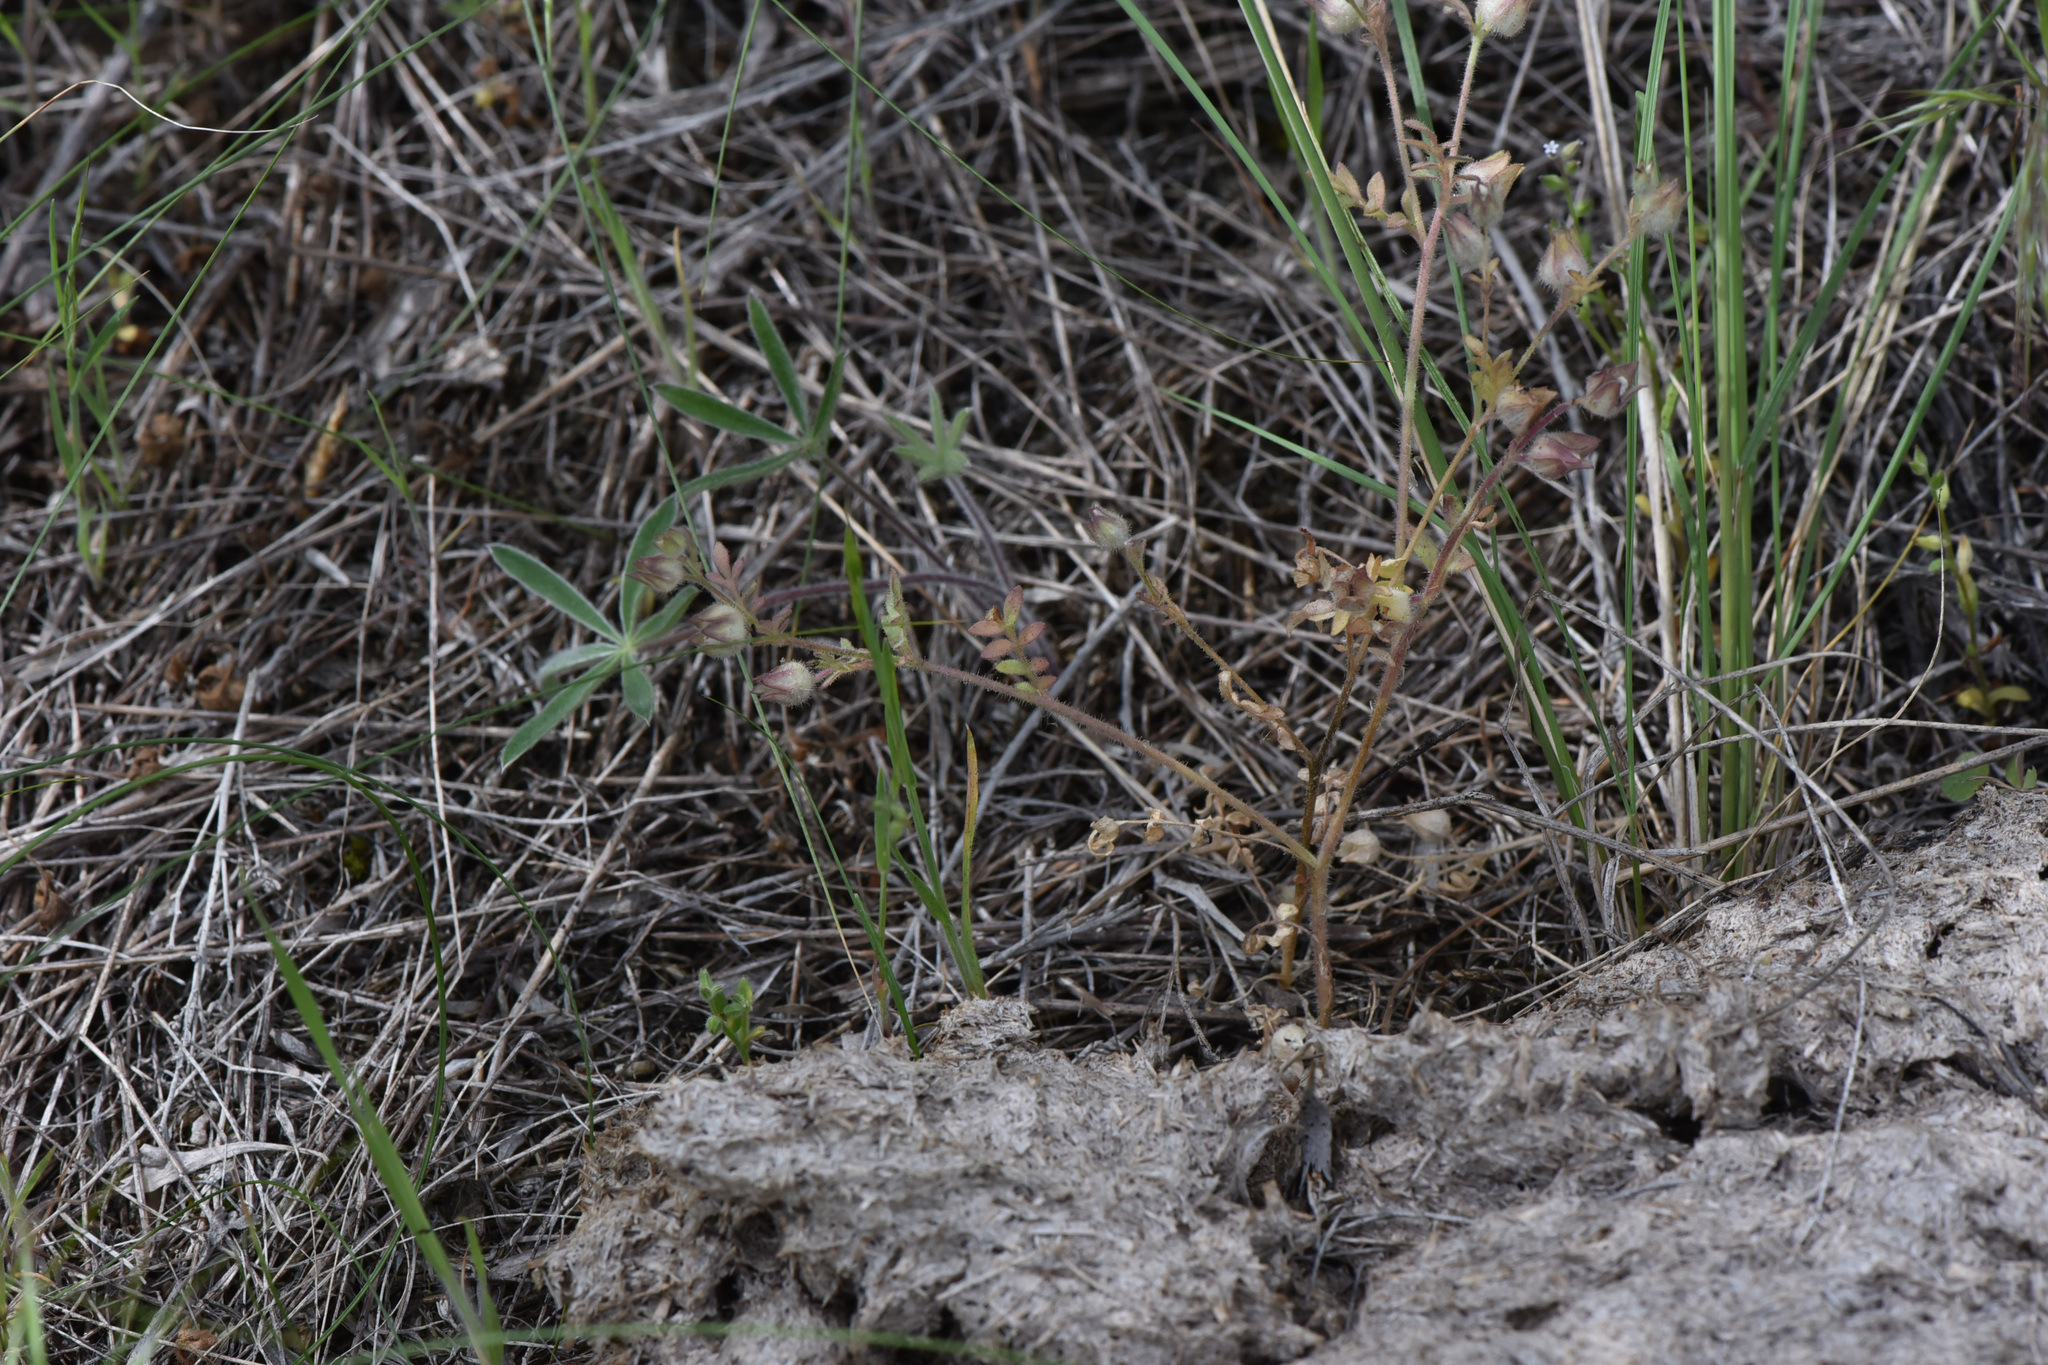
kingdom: Plantae
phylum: Tracheophyta
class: Magnoliopsida
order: Ericales
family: Polemoniaceae
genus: Polemonium
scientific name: Polemonium micranthum
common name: Annual jacob's-ladder
